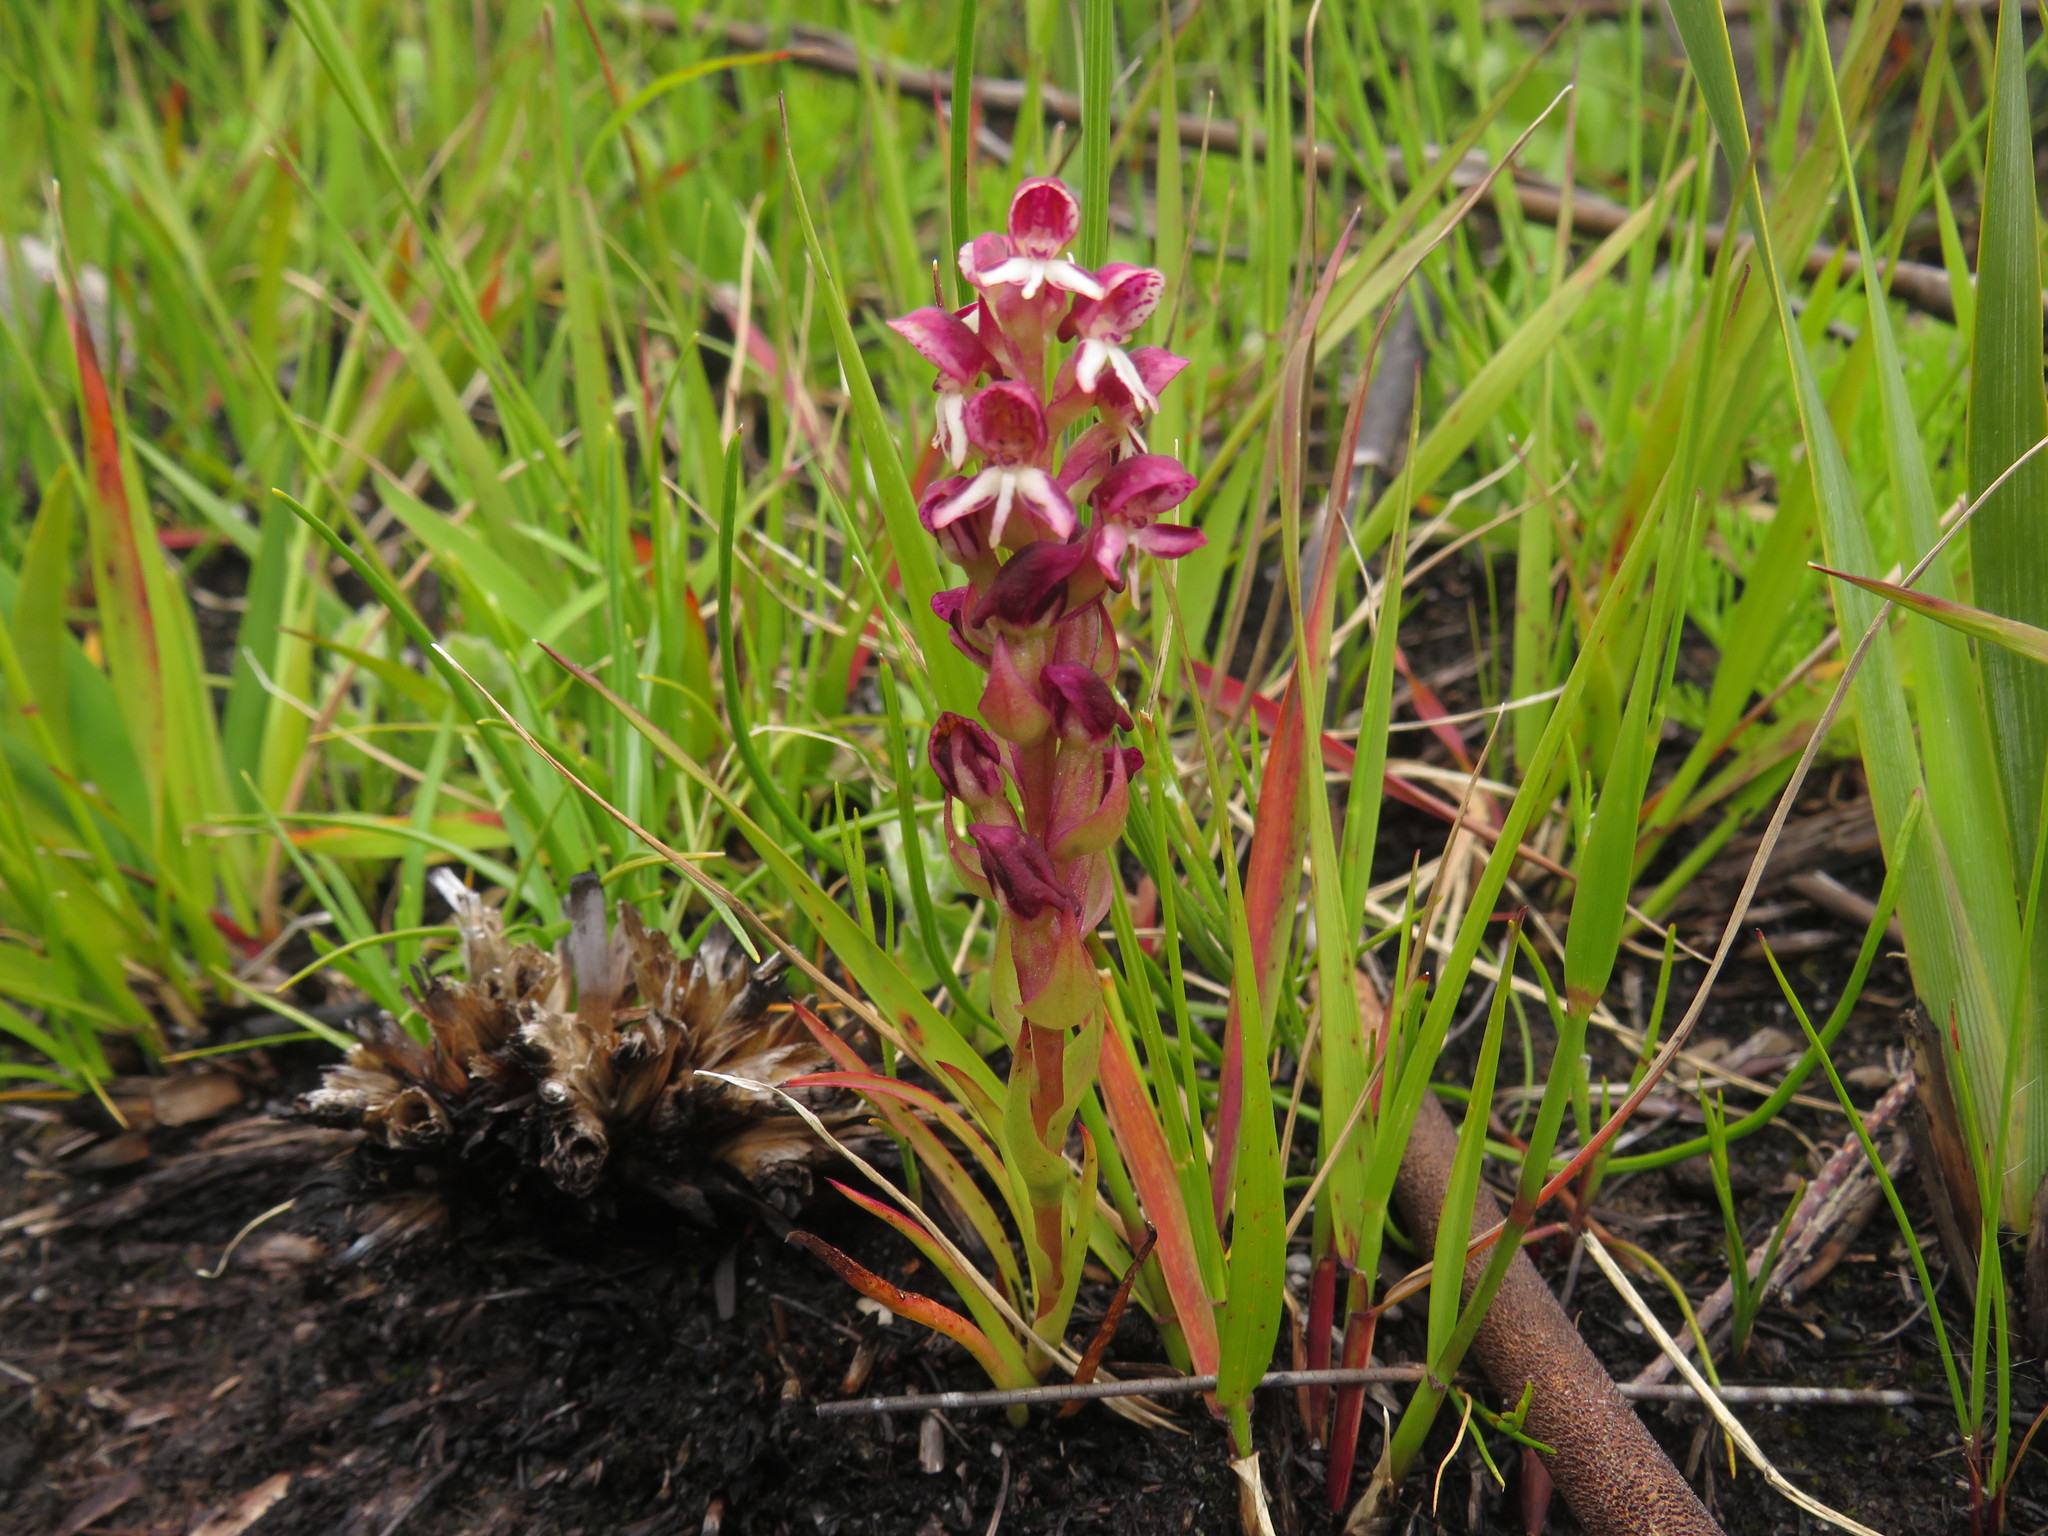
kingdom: Plantae
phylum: Tracheophyta
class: Liliopsida
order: Asparagales
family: Orchidaceae
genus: Disa
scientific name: Disa albomagentea
